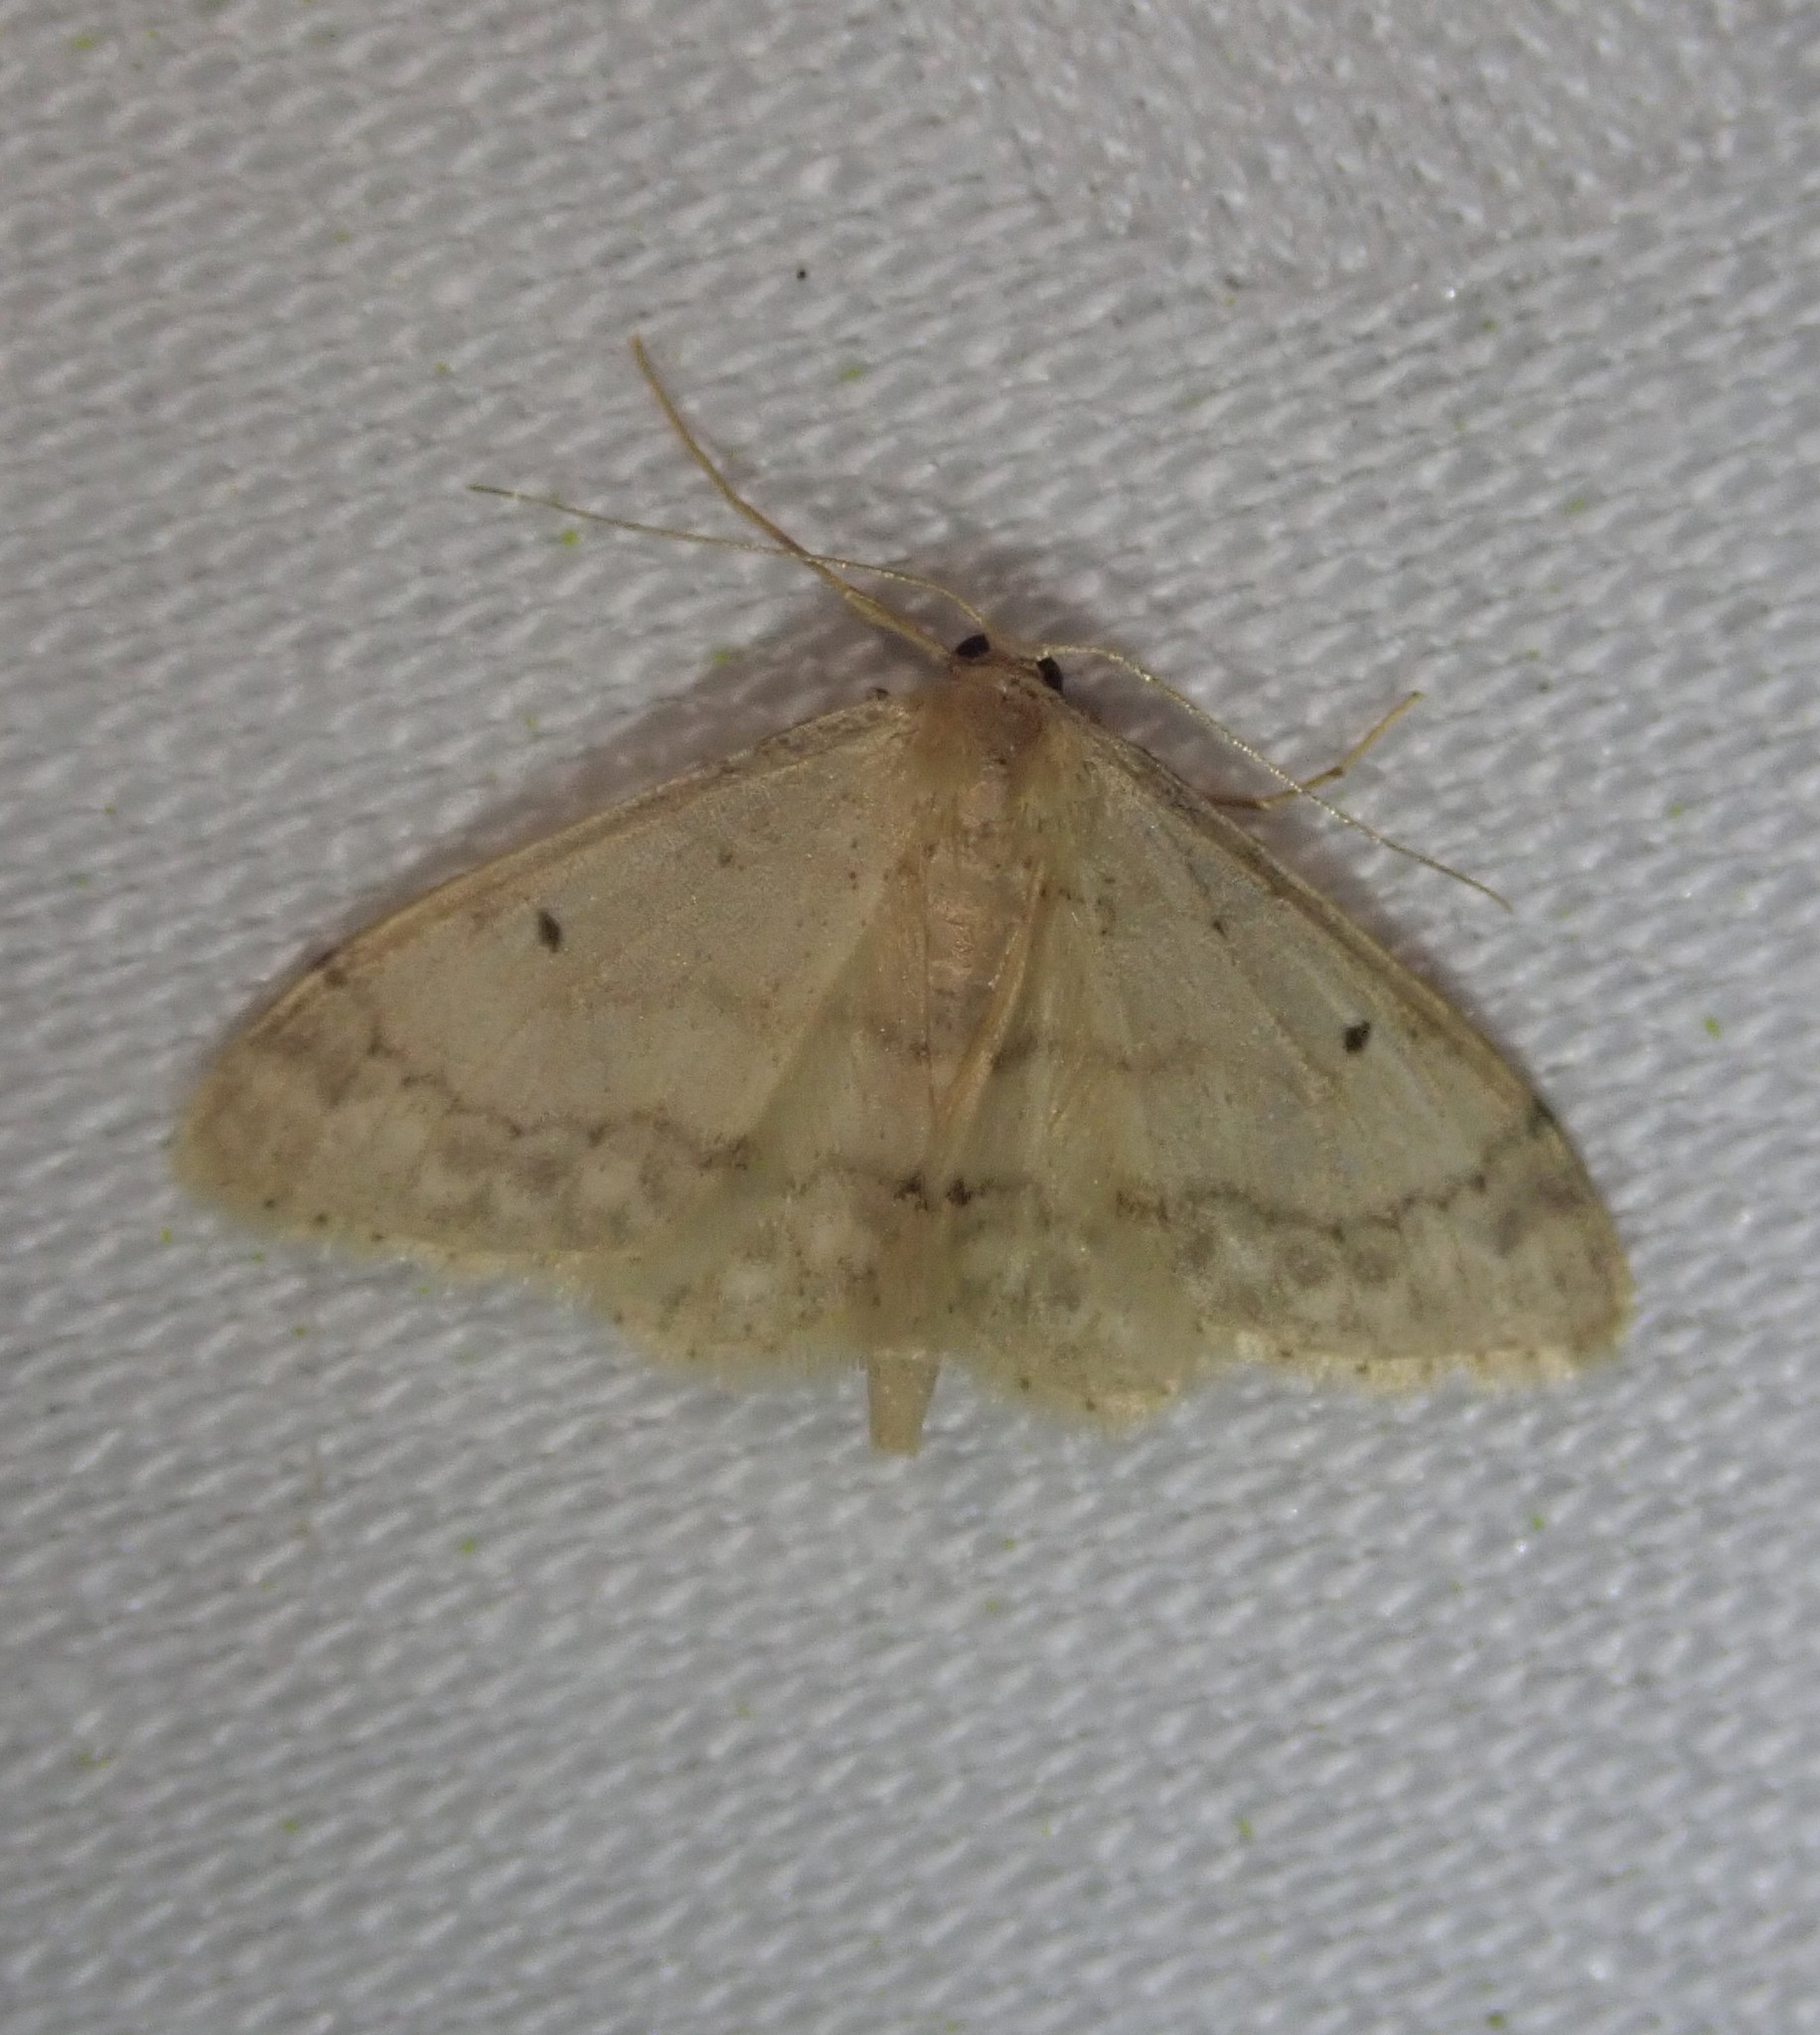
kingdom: Animalia
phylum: Arthropoda
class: Insecta
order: Lepidoptera
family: Geometridae
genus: Idaea
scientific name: Idaea biselata
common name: Small fan-footed wave
